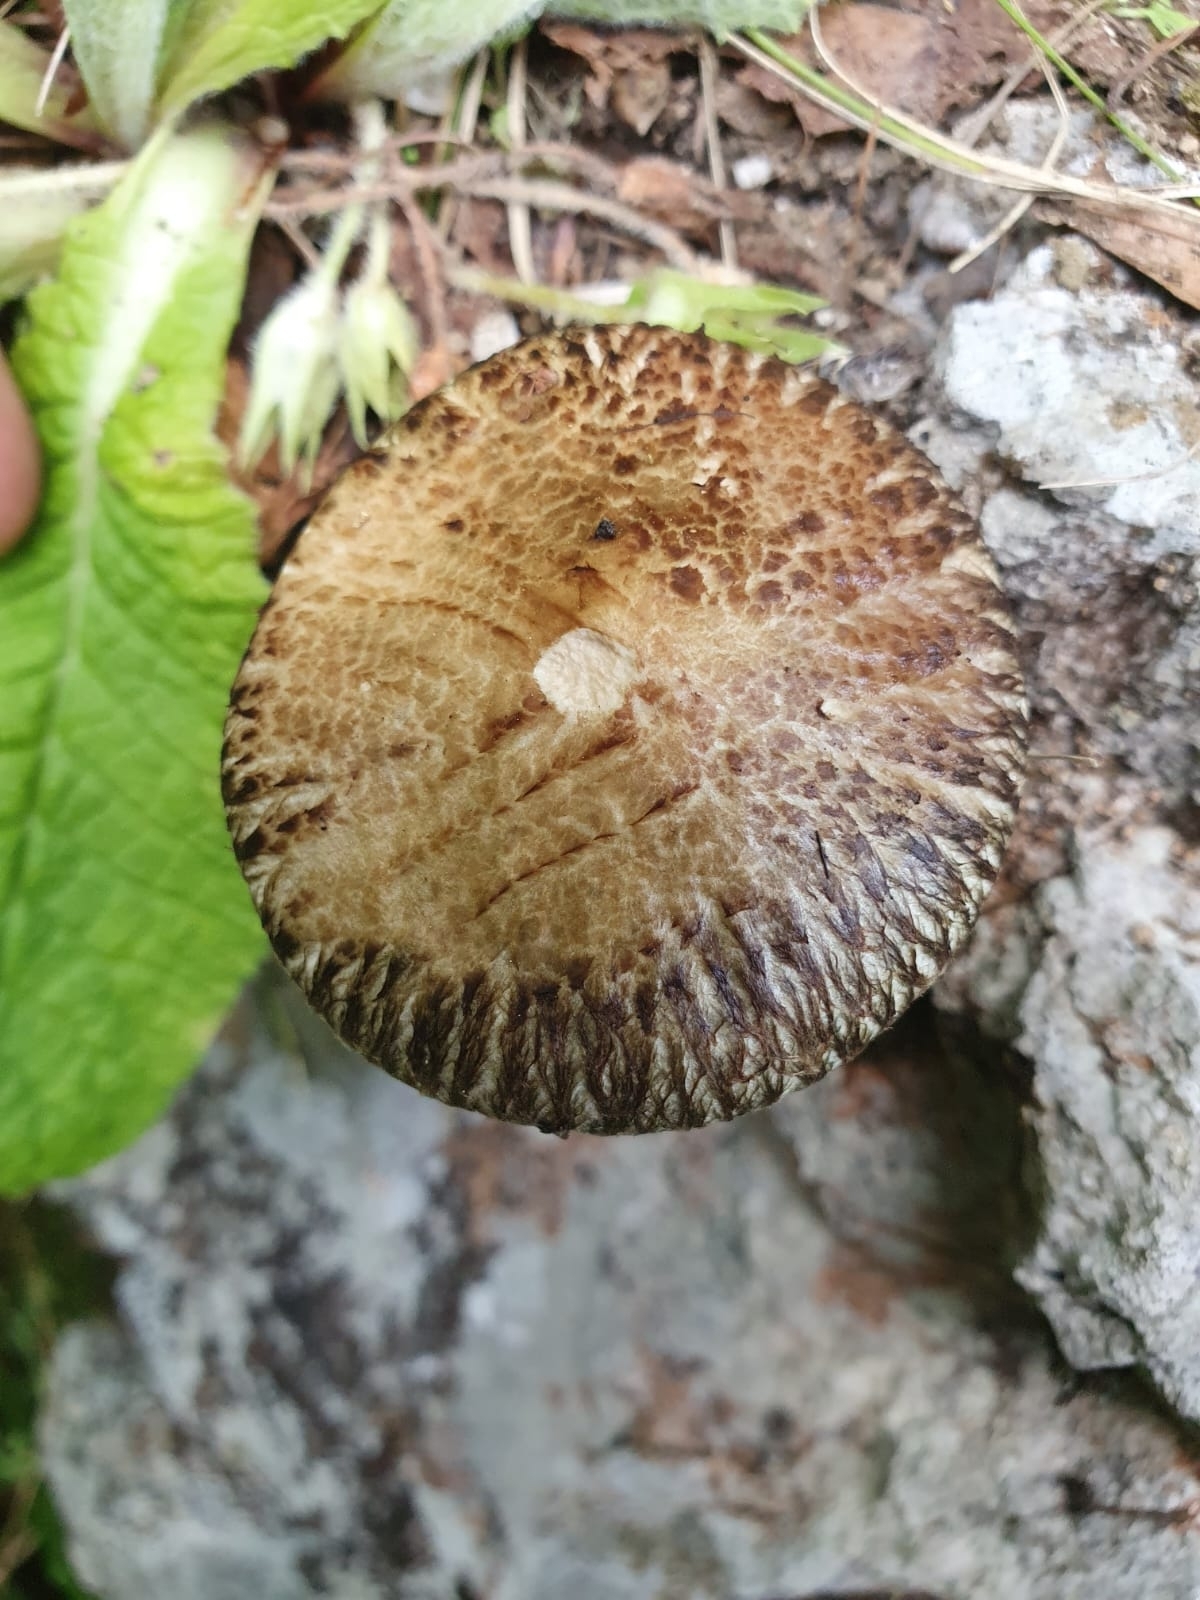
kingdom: Fungi
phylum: Basidiomycota
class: Agaricomycetes
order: Boletales
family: Suillaceae
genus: Suillus
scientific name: Suillus viscidus
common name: Sticky bolete
